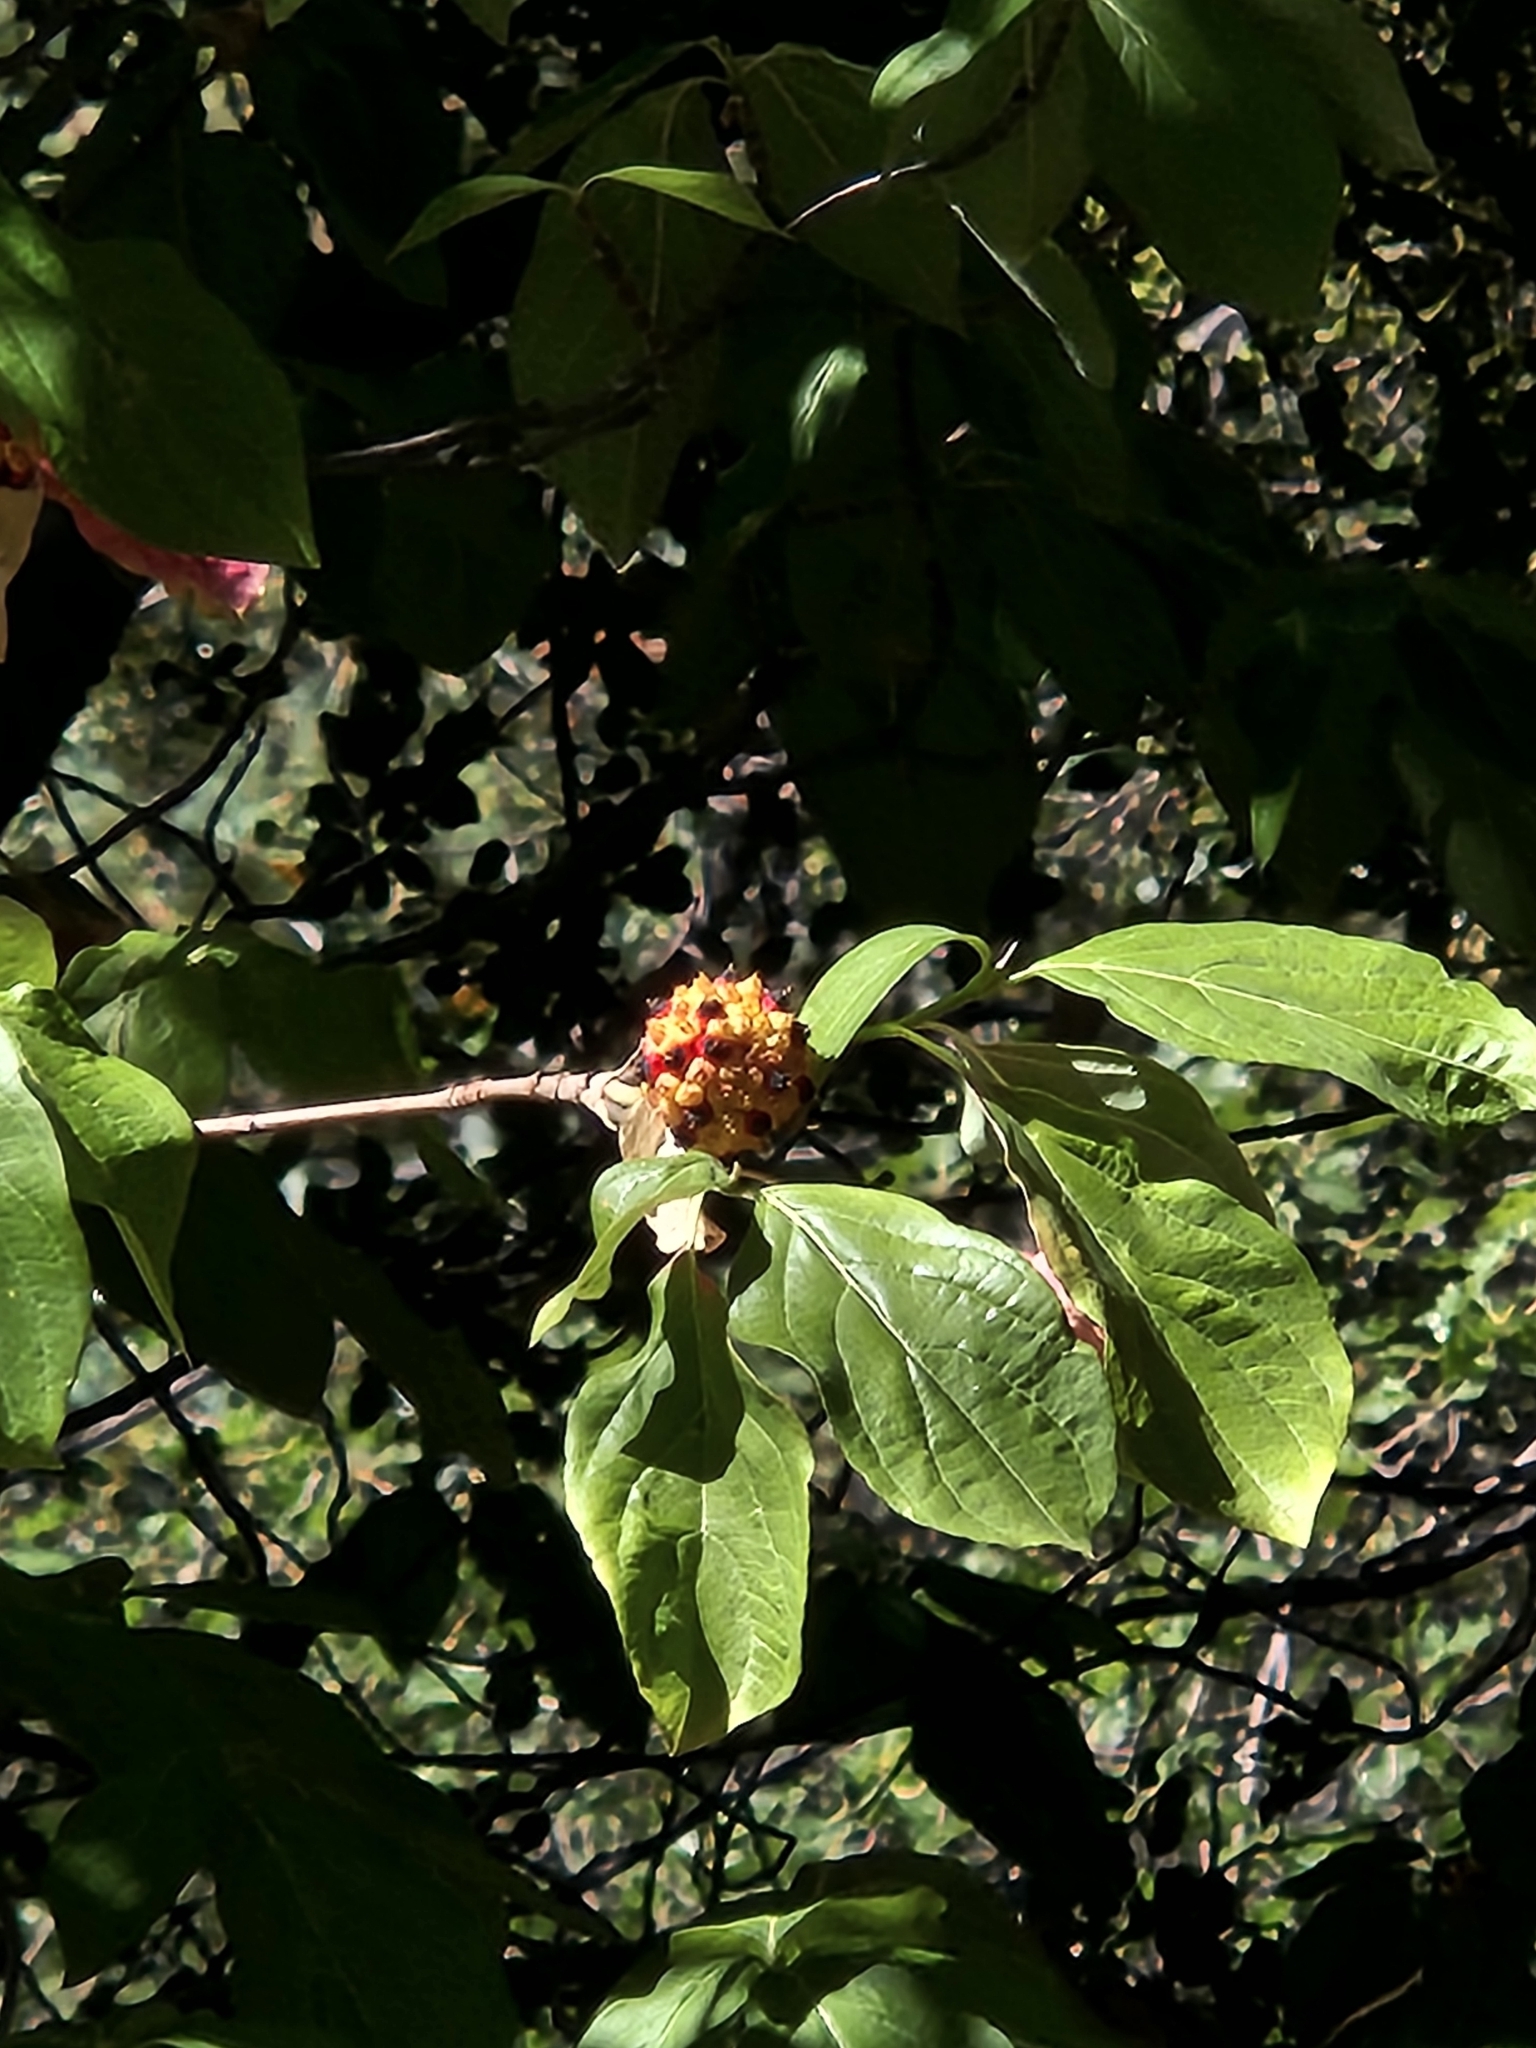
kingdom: Plantae
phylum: Tracheophyta
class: Magnoliopsida
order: Cornales
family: Cornaceae
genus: Cornus
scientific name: Cornus nuttallii
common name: Pacific dogwood
